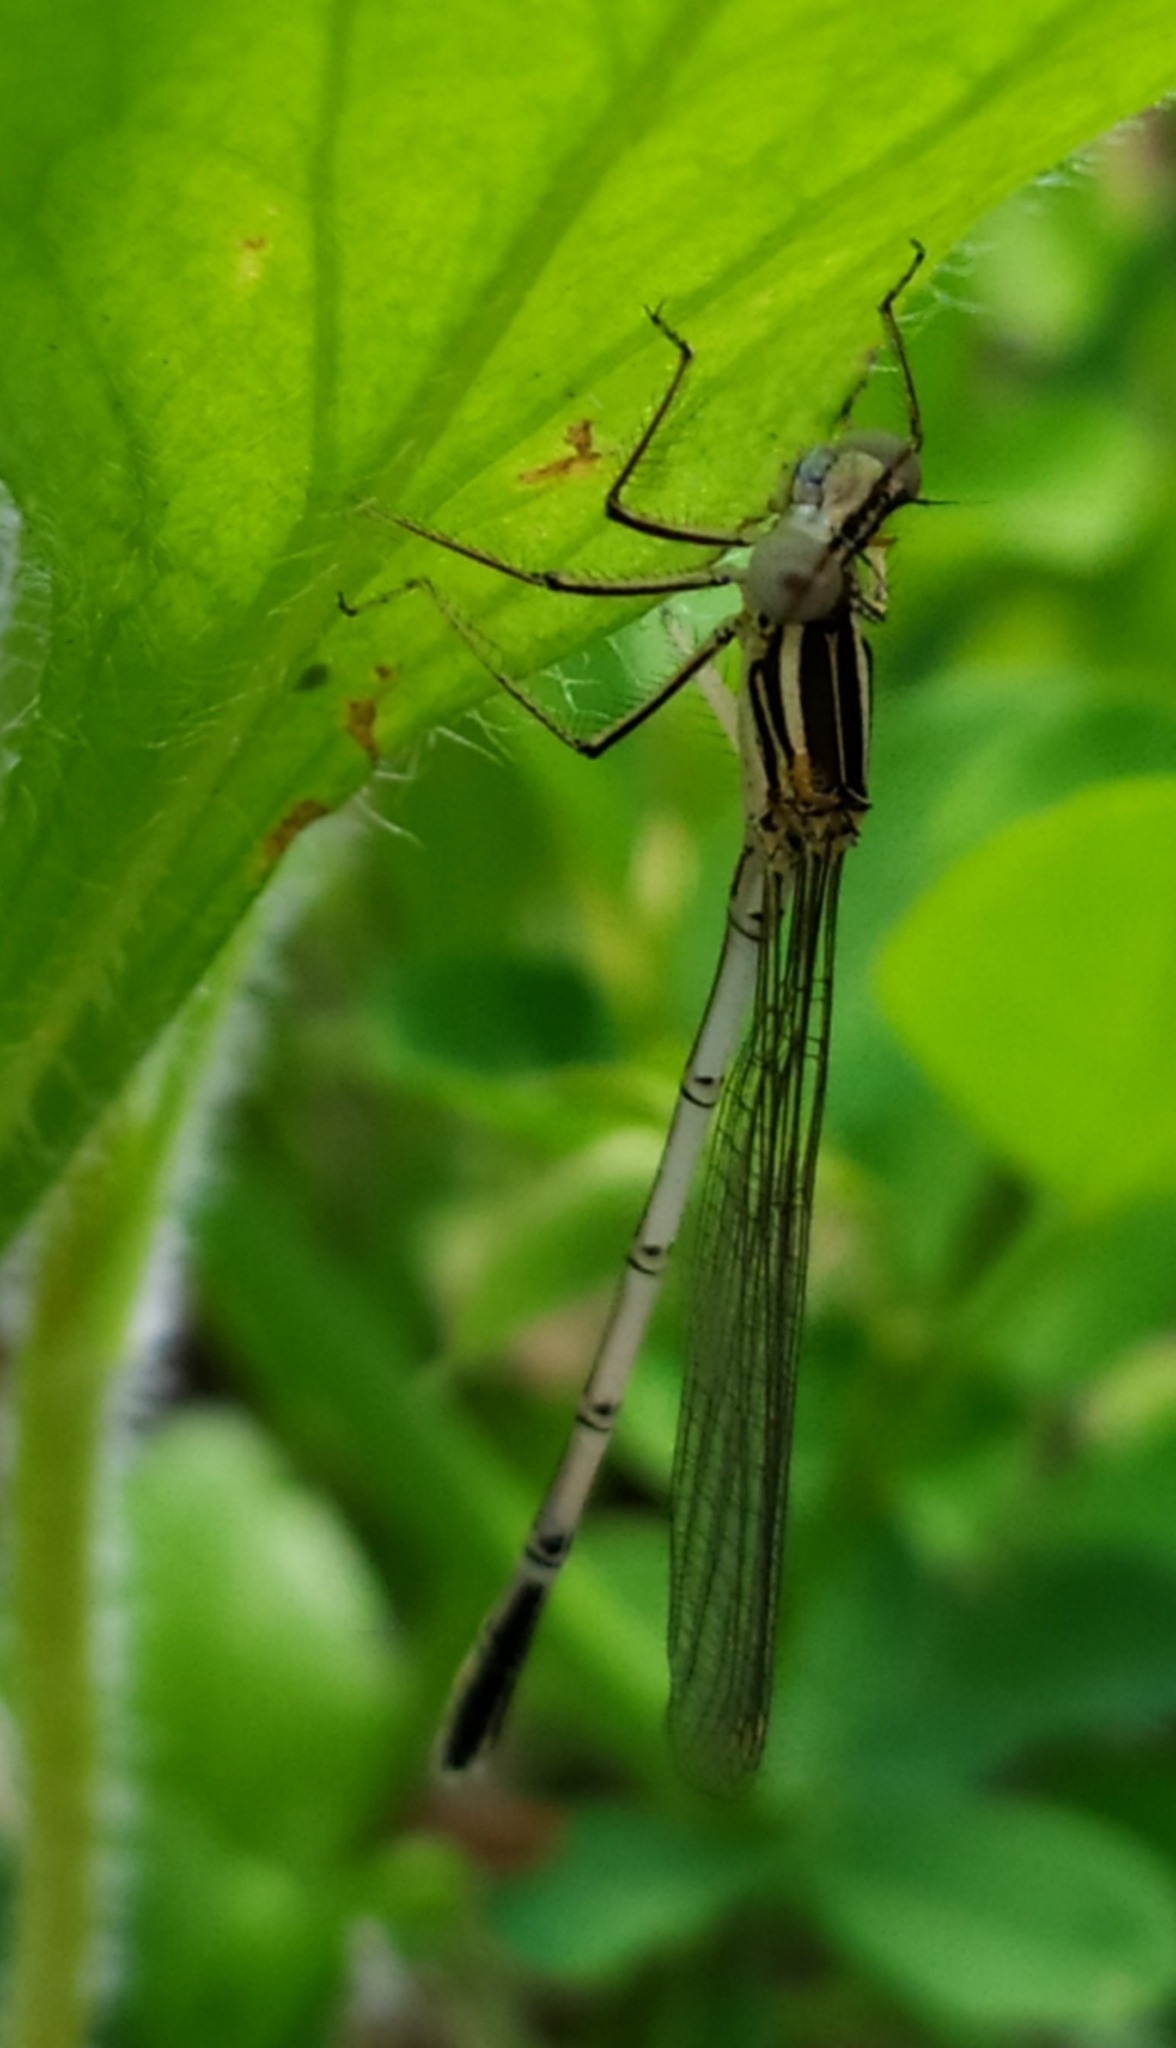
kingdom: Animalia
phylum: Arthropoda
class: Insecta
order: Odonata
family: Platycnemididae
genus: Platycnemis
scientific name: Platycnemis pennipes
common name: White-legged damselfly
